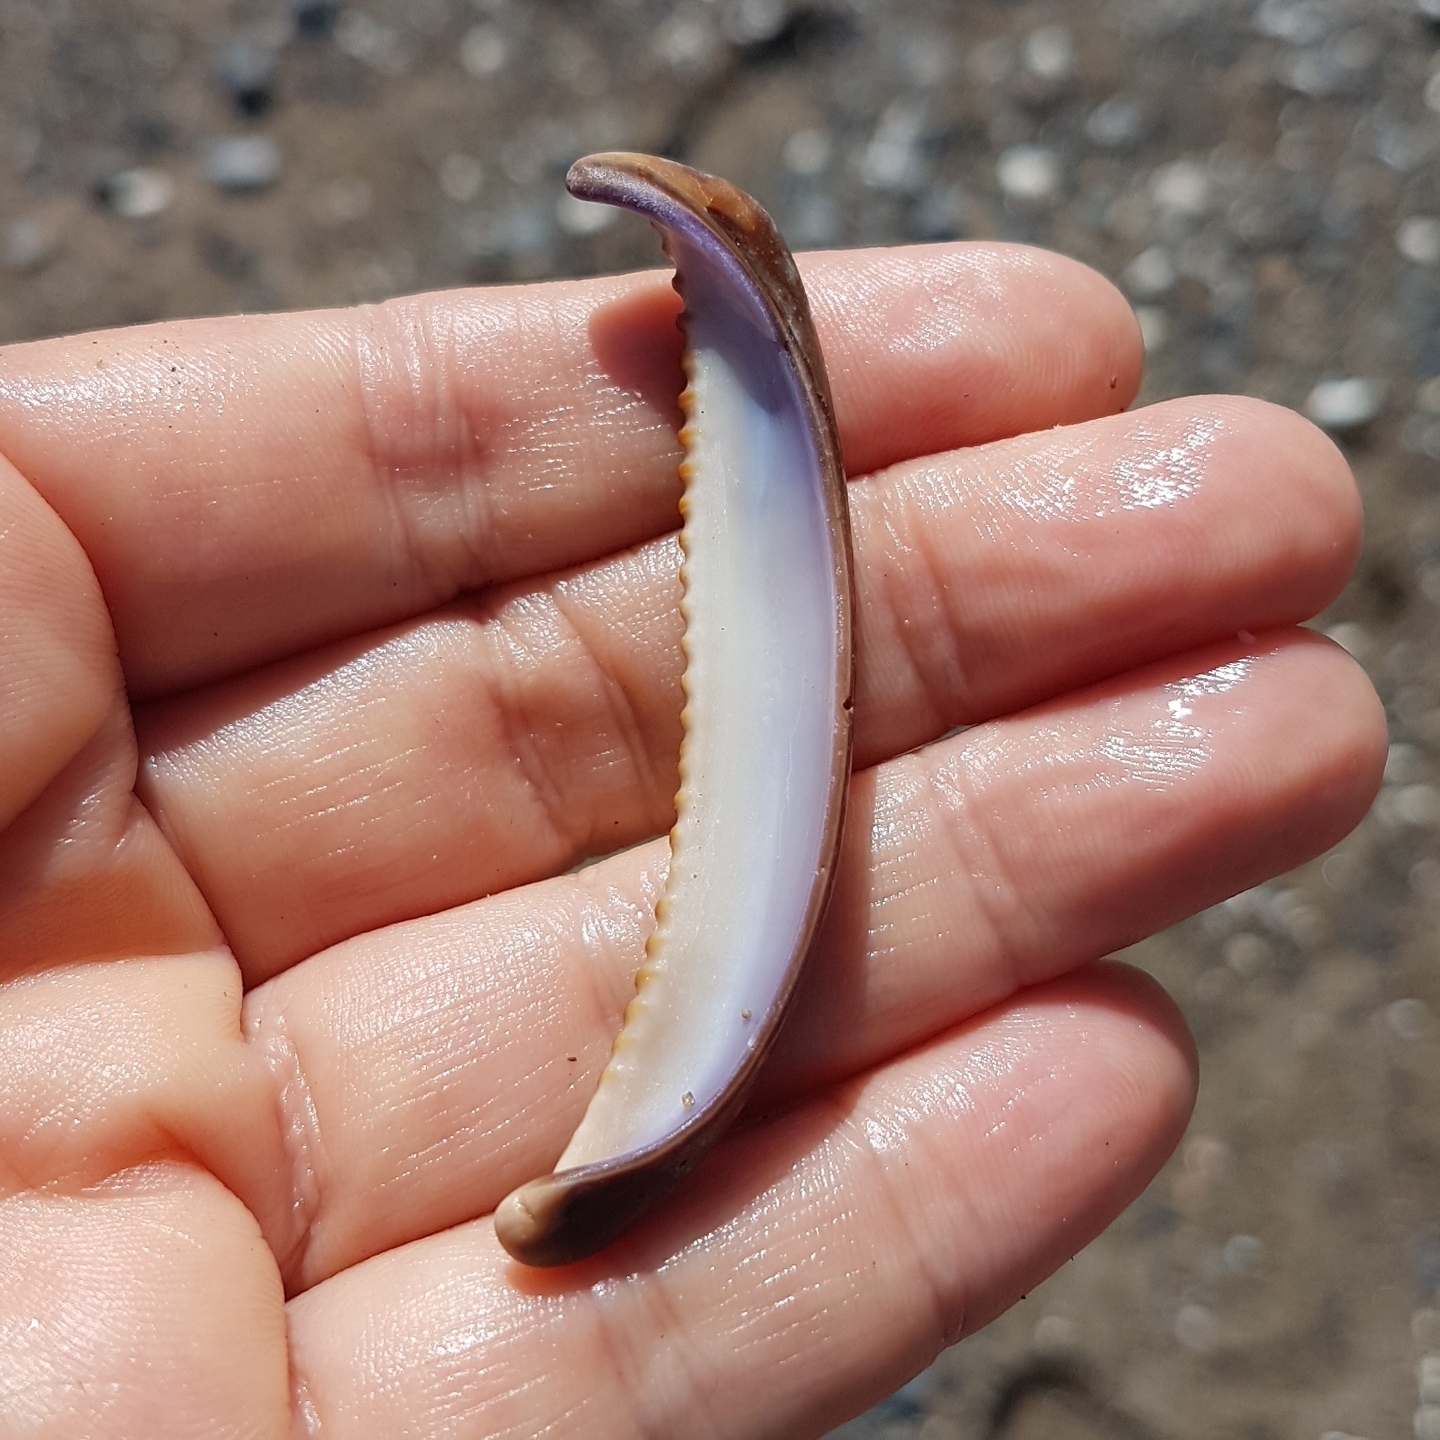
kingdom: Animalia
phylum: Mollusca
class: Gastropoda
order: Littorinimorpha
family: Cypraeidae
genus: Macrocypraea
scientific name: Macrocypraea cervinetta
